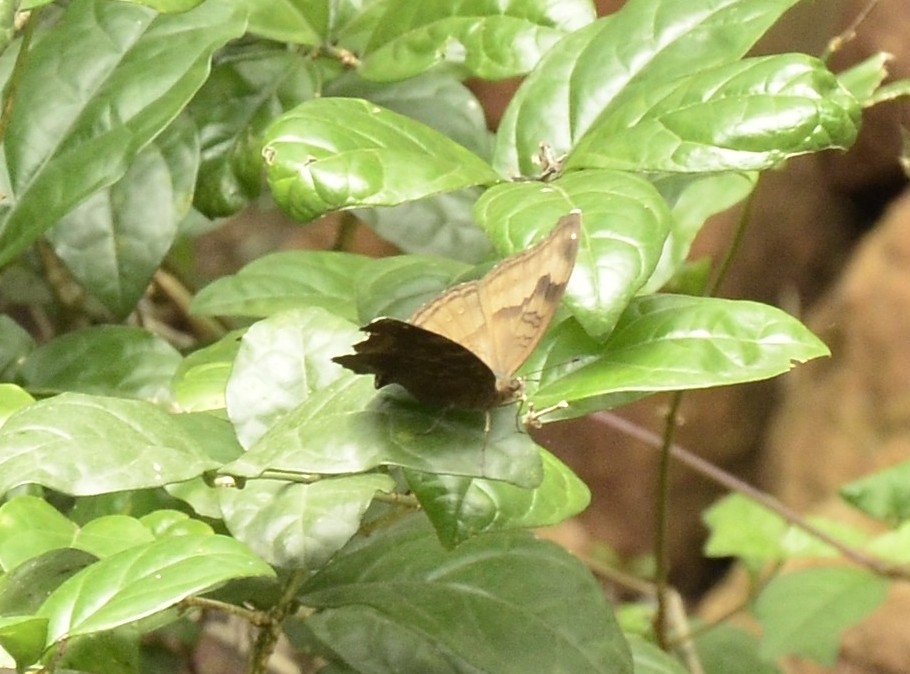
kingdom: Animalia
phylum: Arthropoda
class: Insecta
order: Lepidoptera
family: Nymphalidae
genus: Junonia
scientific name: Junonia iphita
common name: Chocolate pansy
